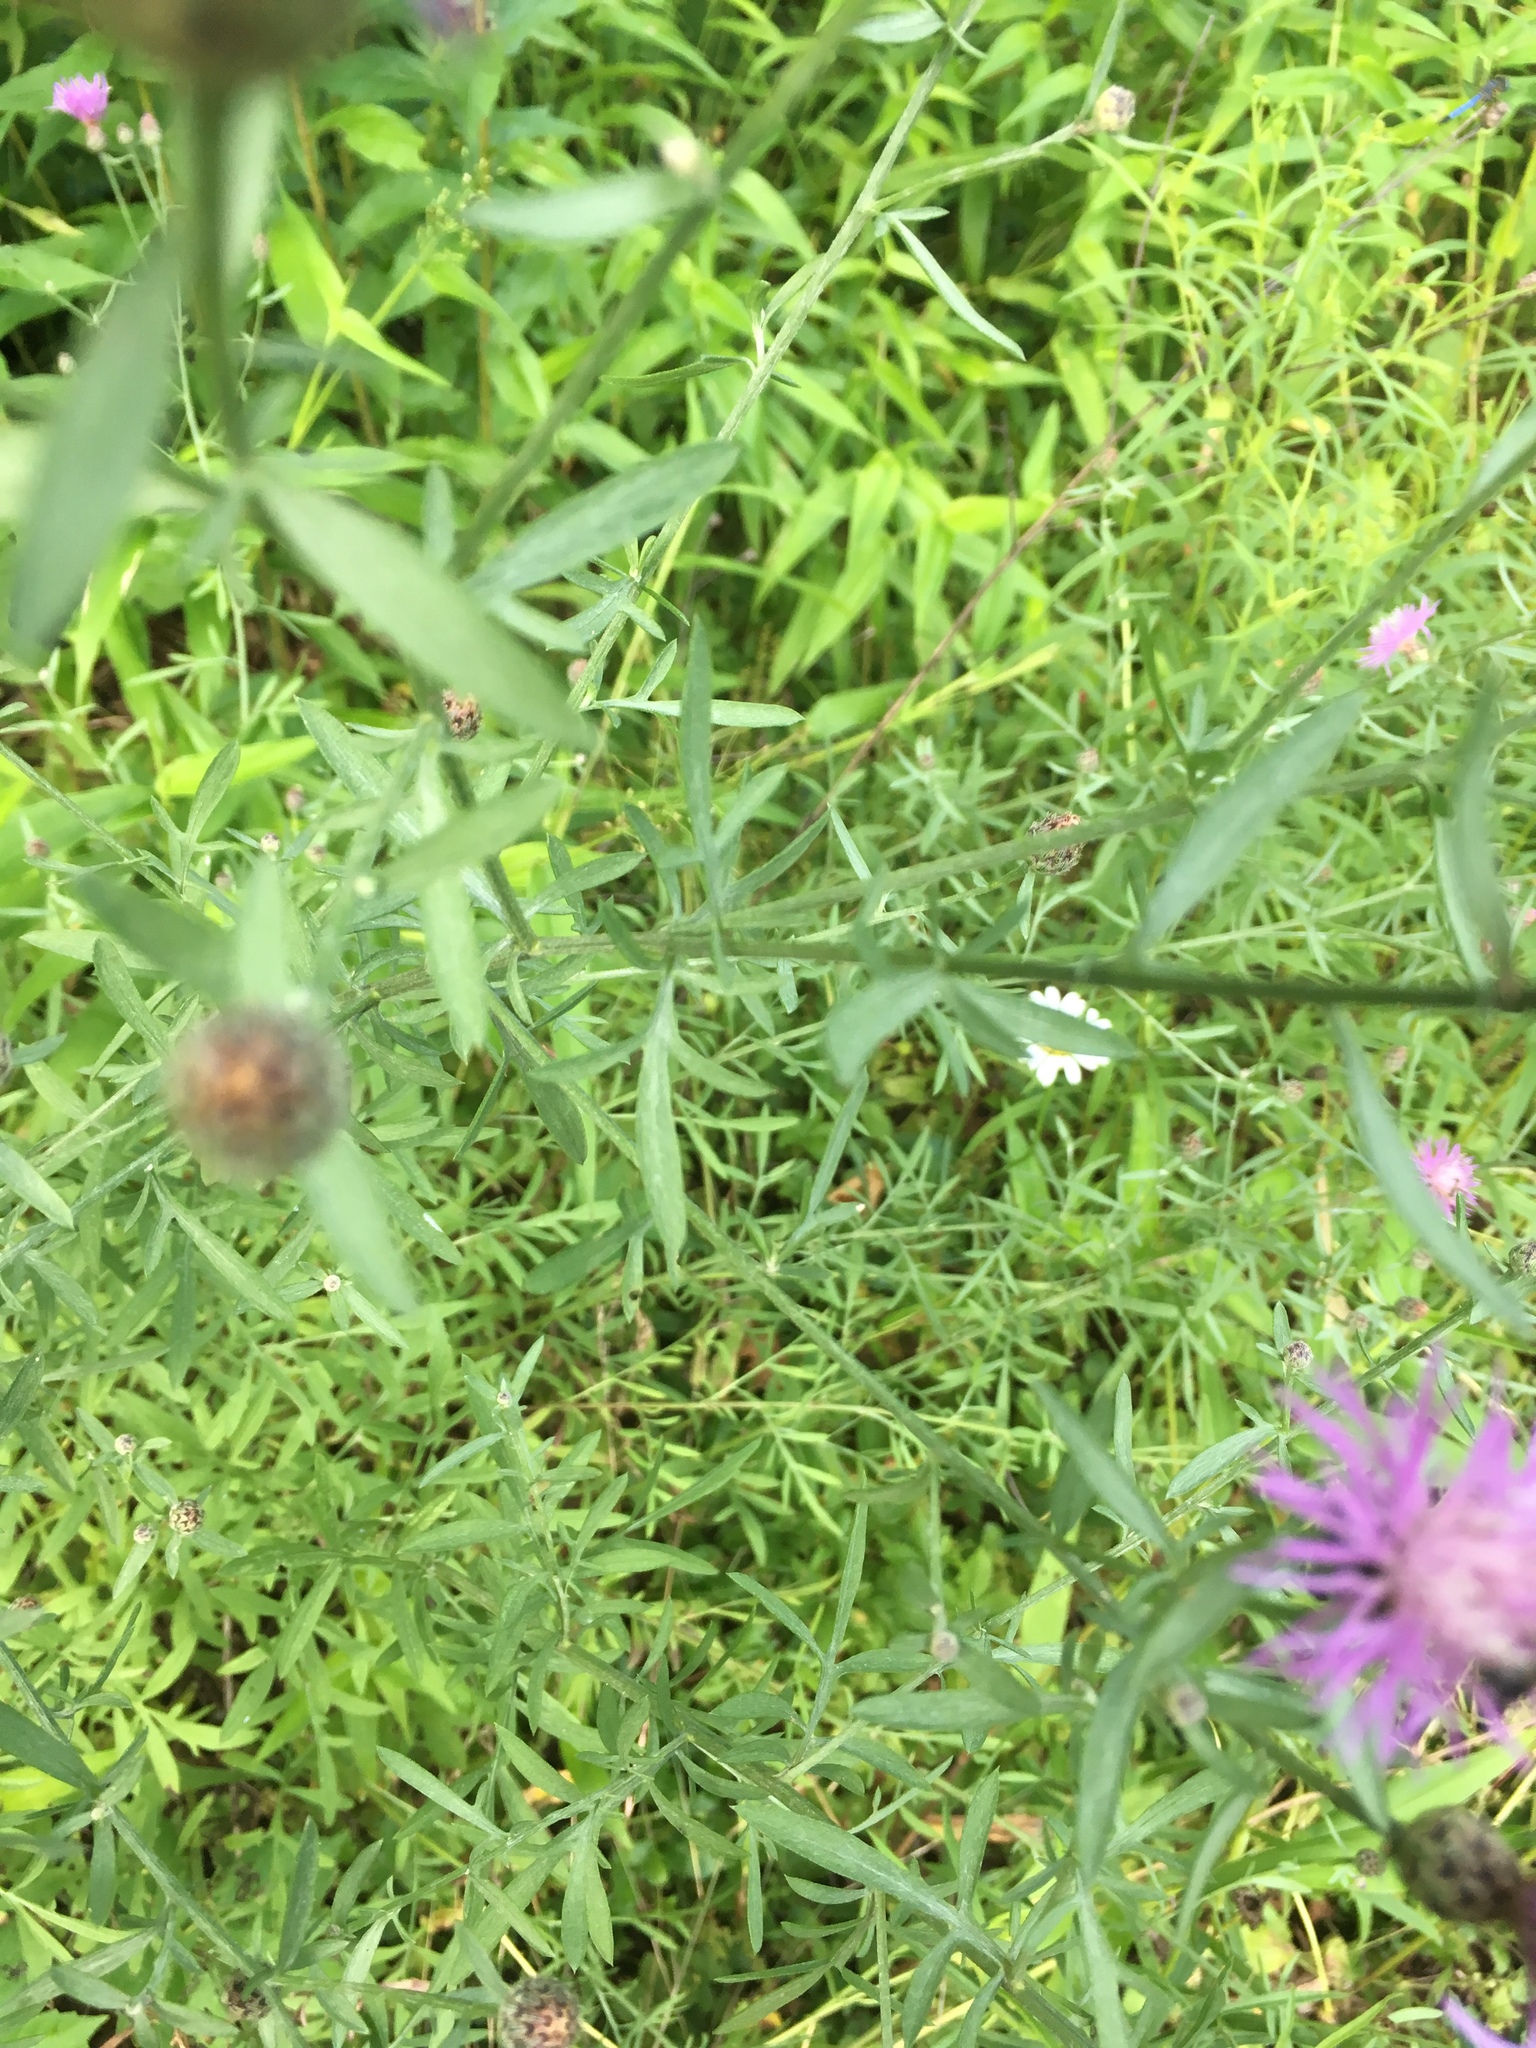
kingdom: Plantae
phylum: Tracheophyta
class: Magnoliopsida
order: Asterales
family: Asteraceae
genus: Centaurea
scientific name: Centaurea stoebe
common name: Spotted knapweed
